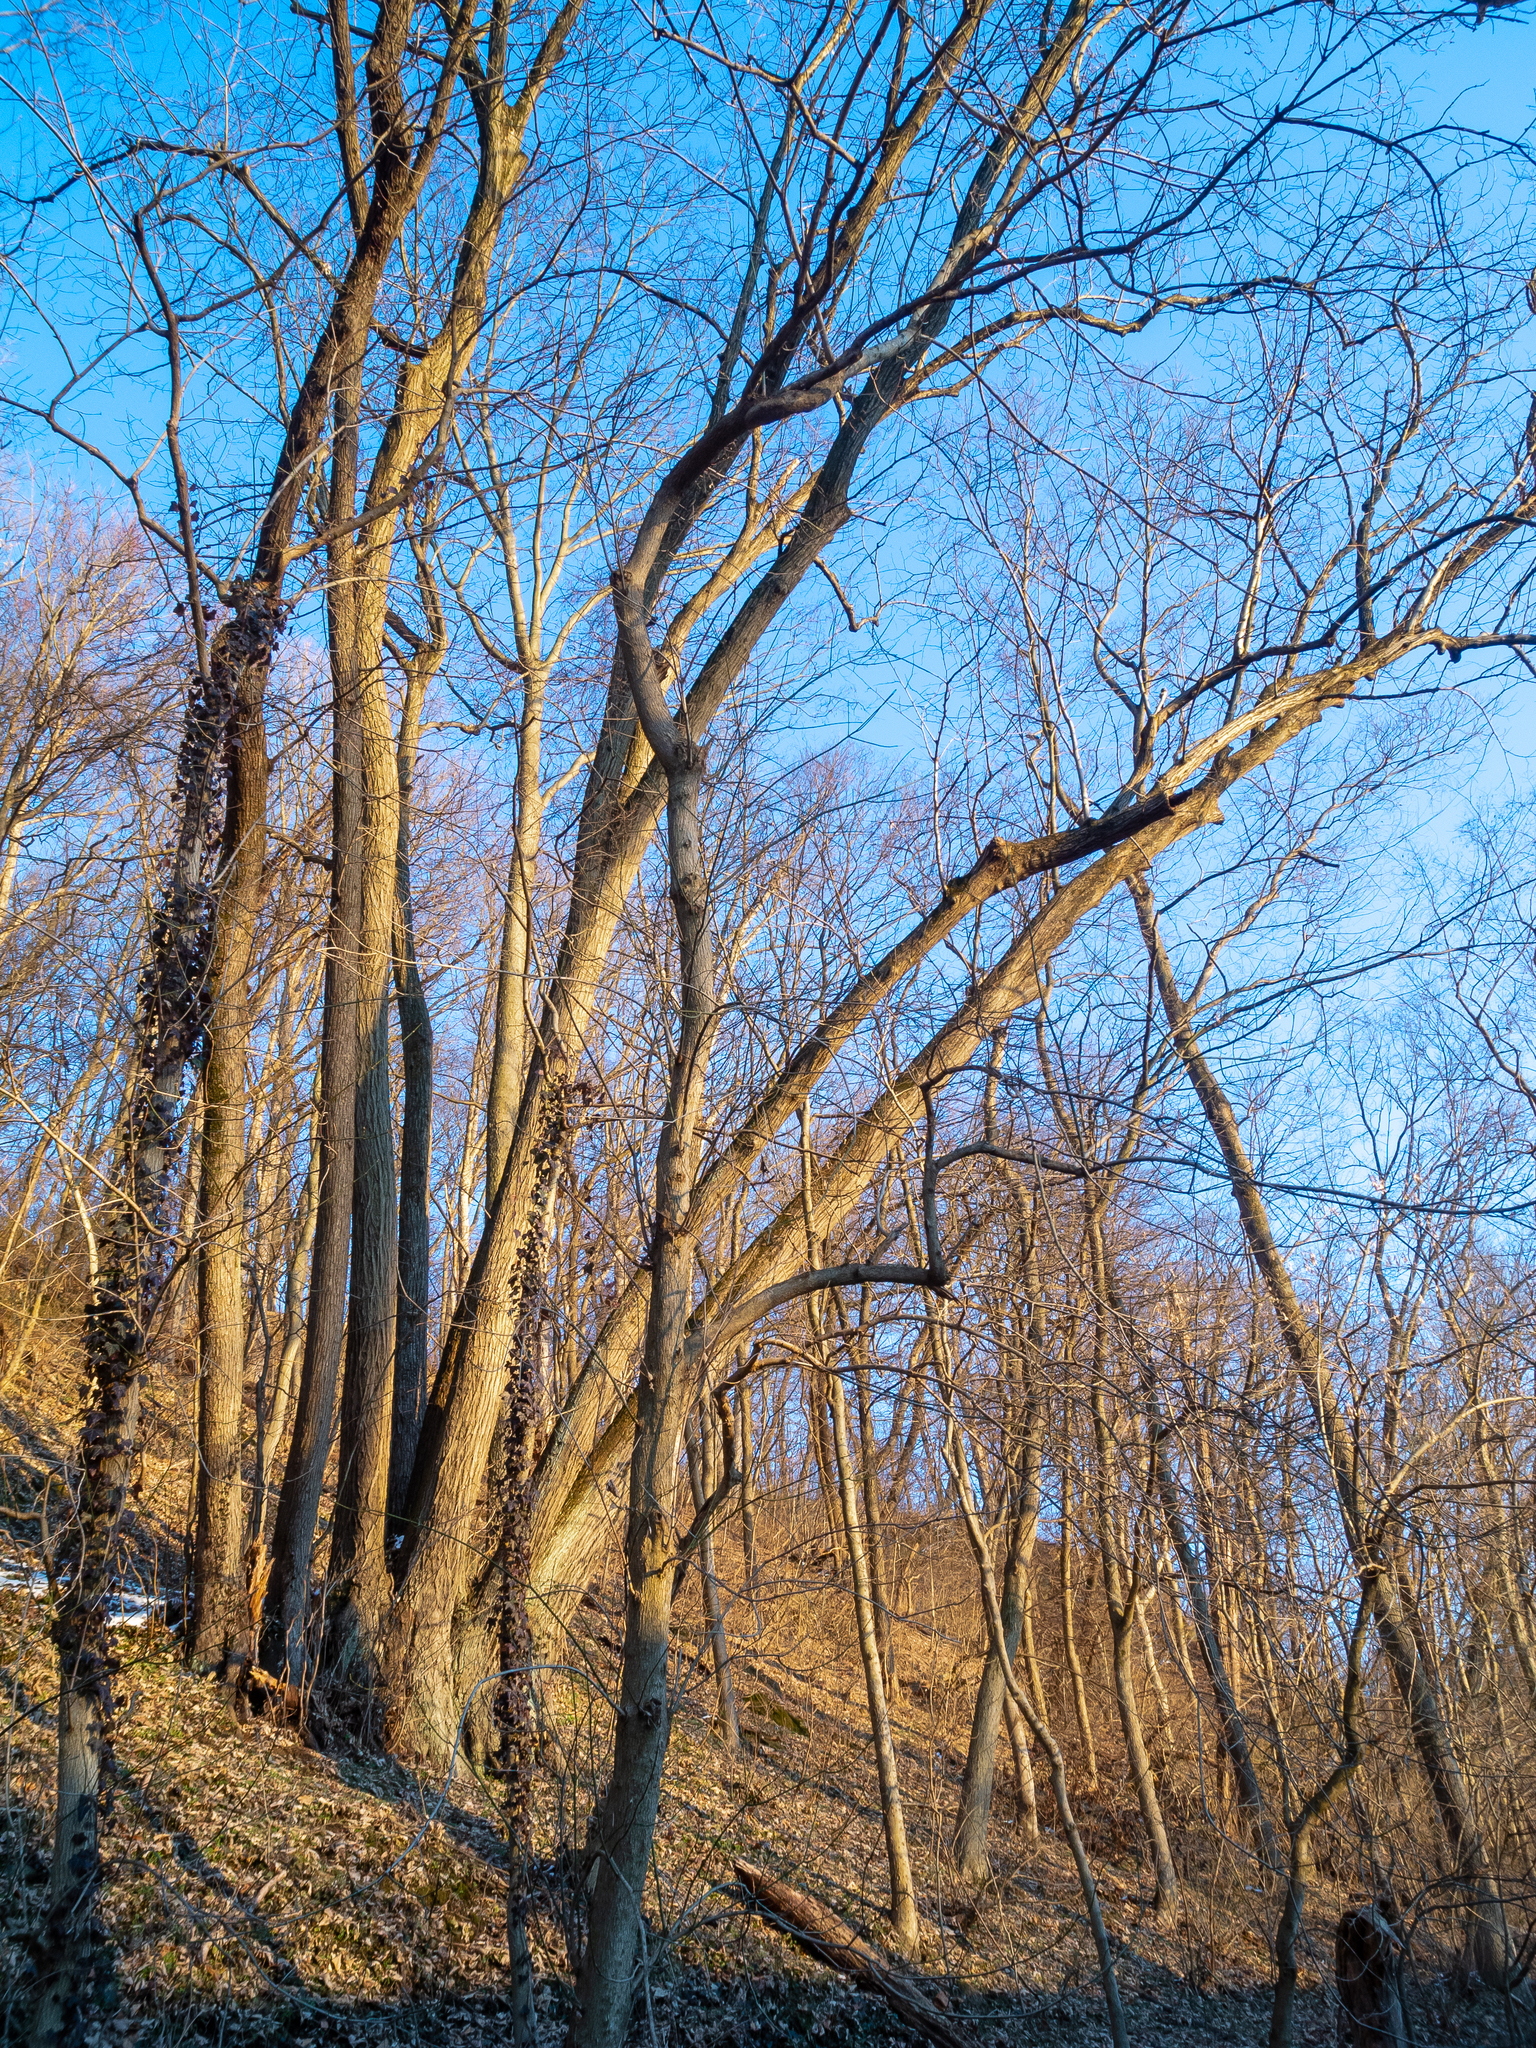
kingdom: Plantae
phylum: Tracheophyta
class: Magnoliopsida
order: Malvales
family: Malvaceae
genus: Tilia
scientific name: Tilia americana
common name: Basswood
